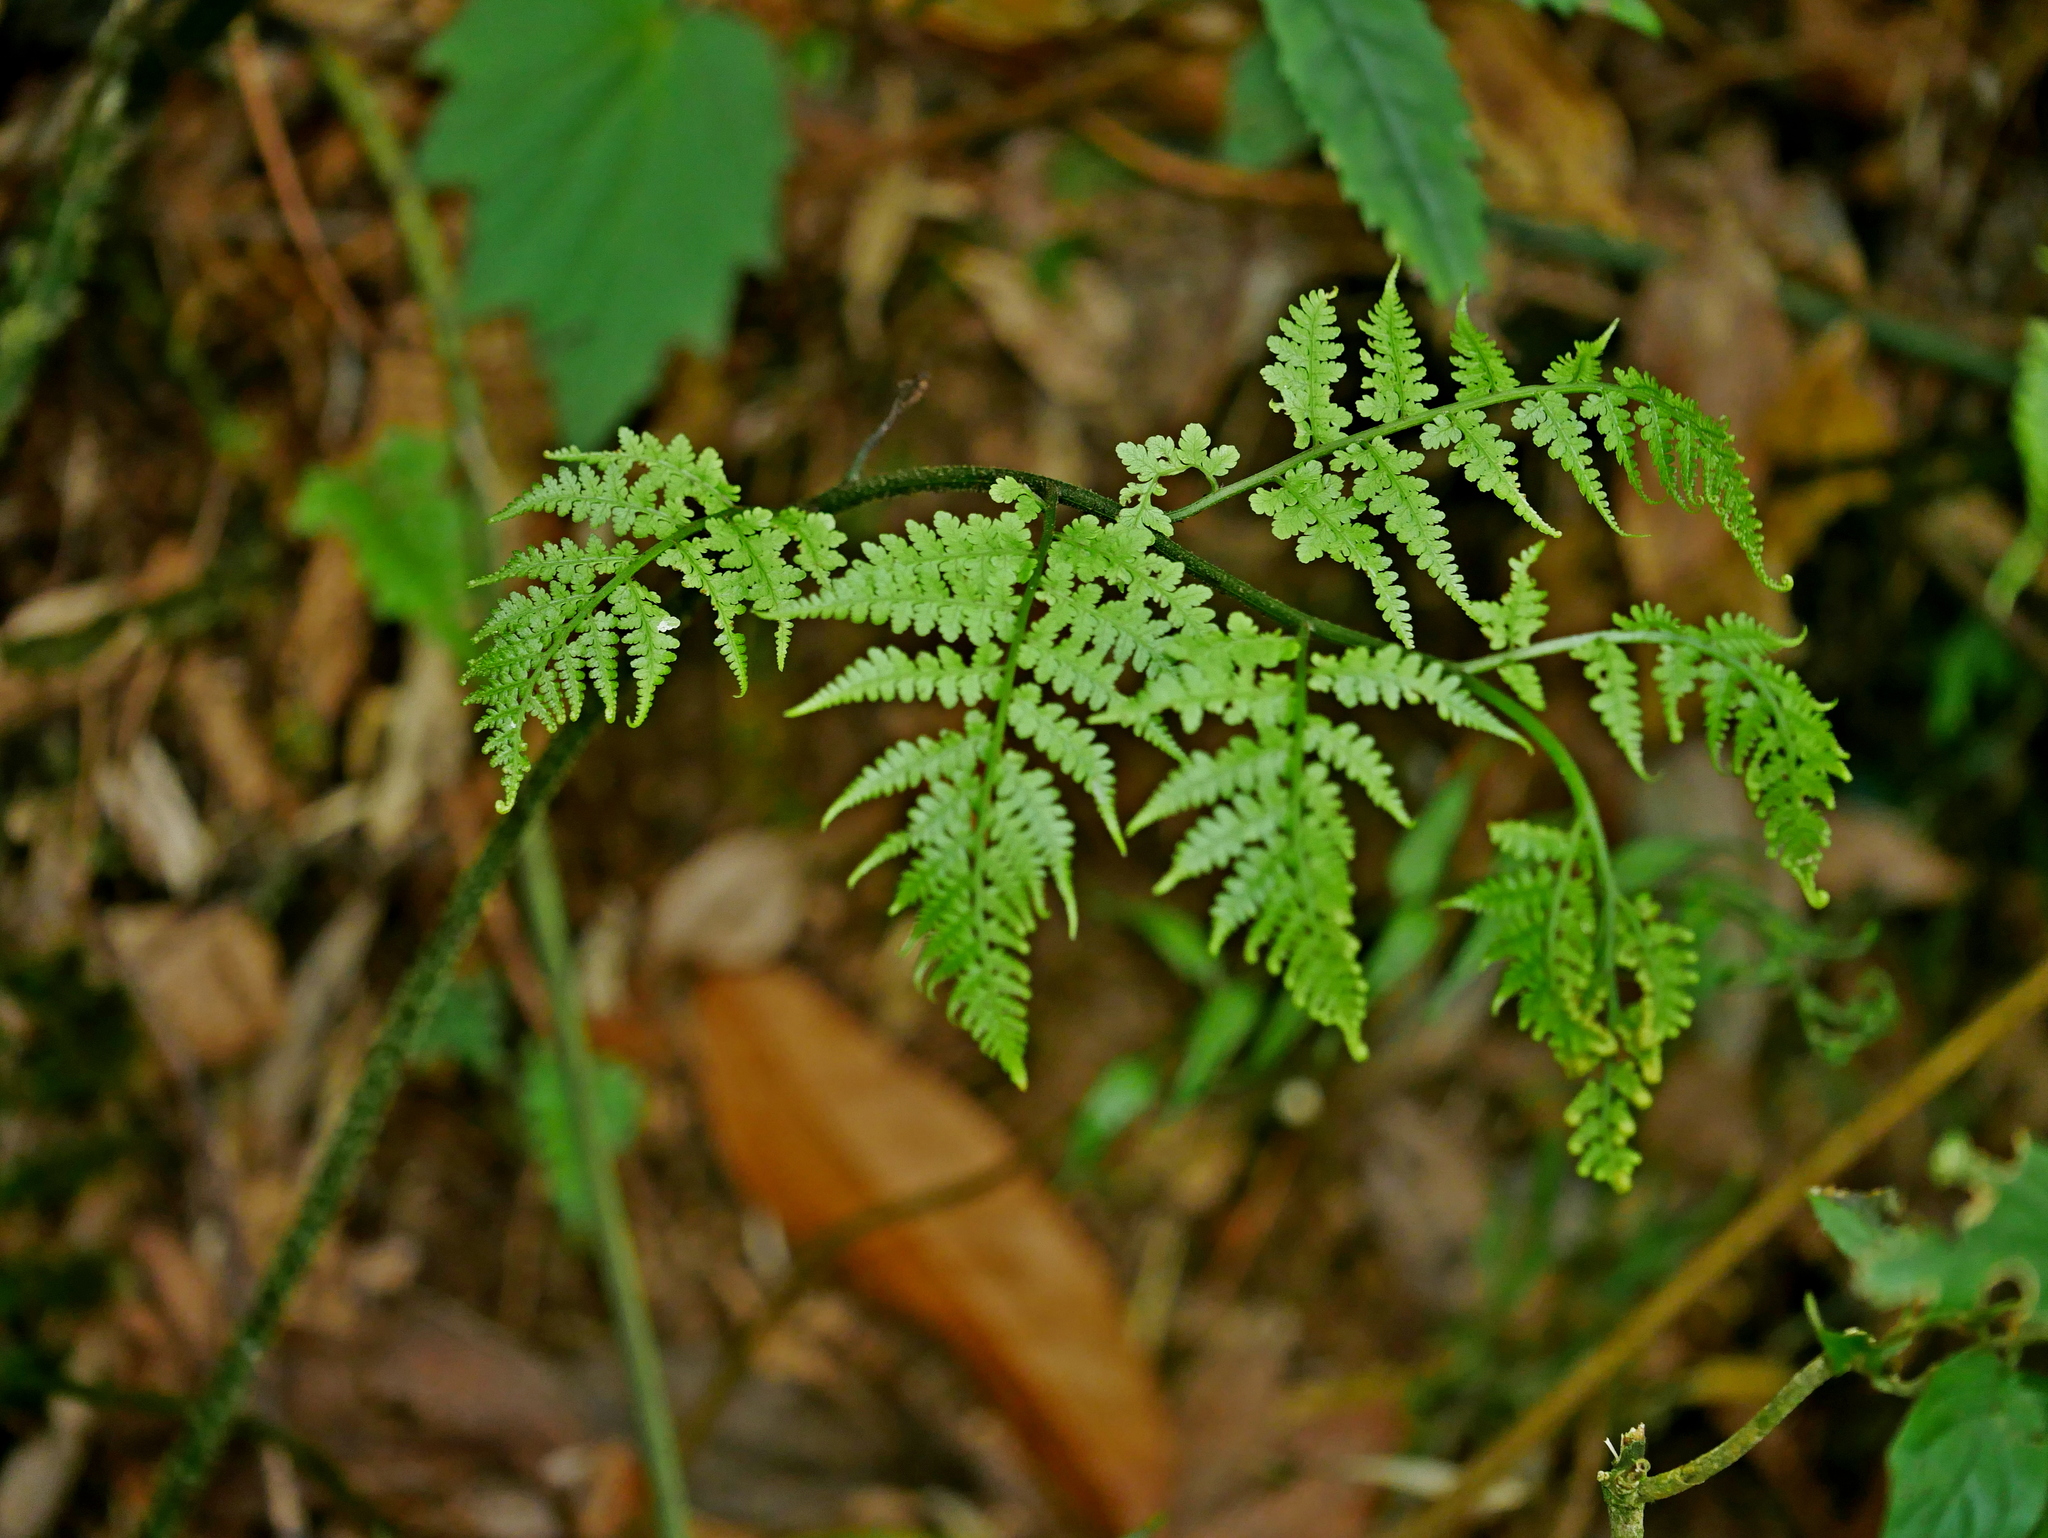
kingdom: Plantae
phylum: Tracheophyta
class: Polypodiopsida
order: Polypodiales
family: Athyriaceae
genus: Diplazium
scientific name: Diplazium kawakamii
